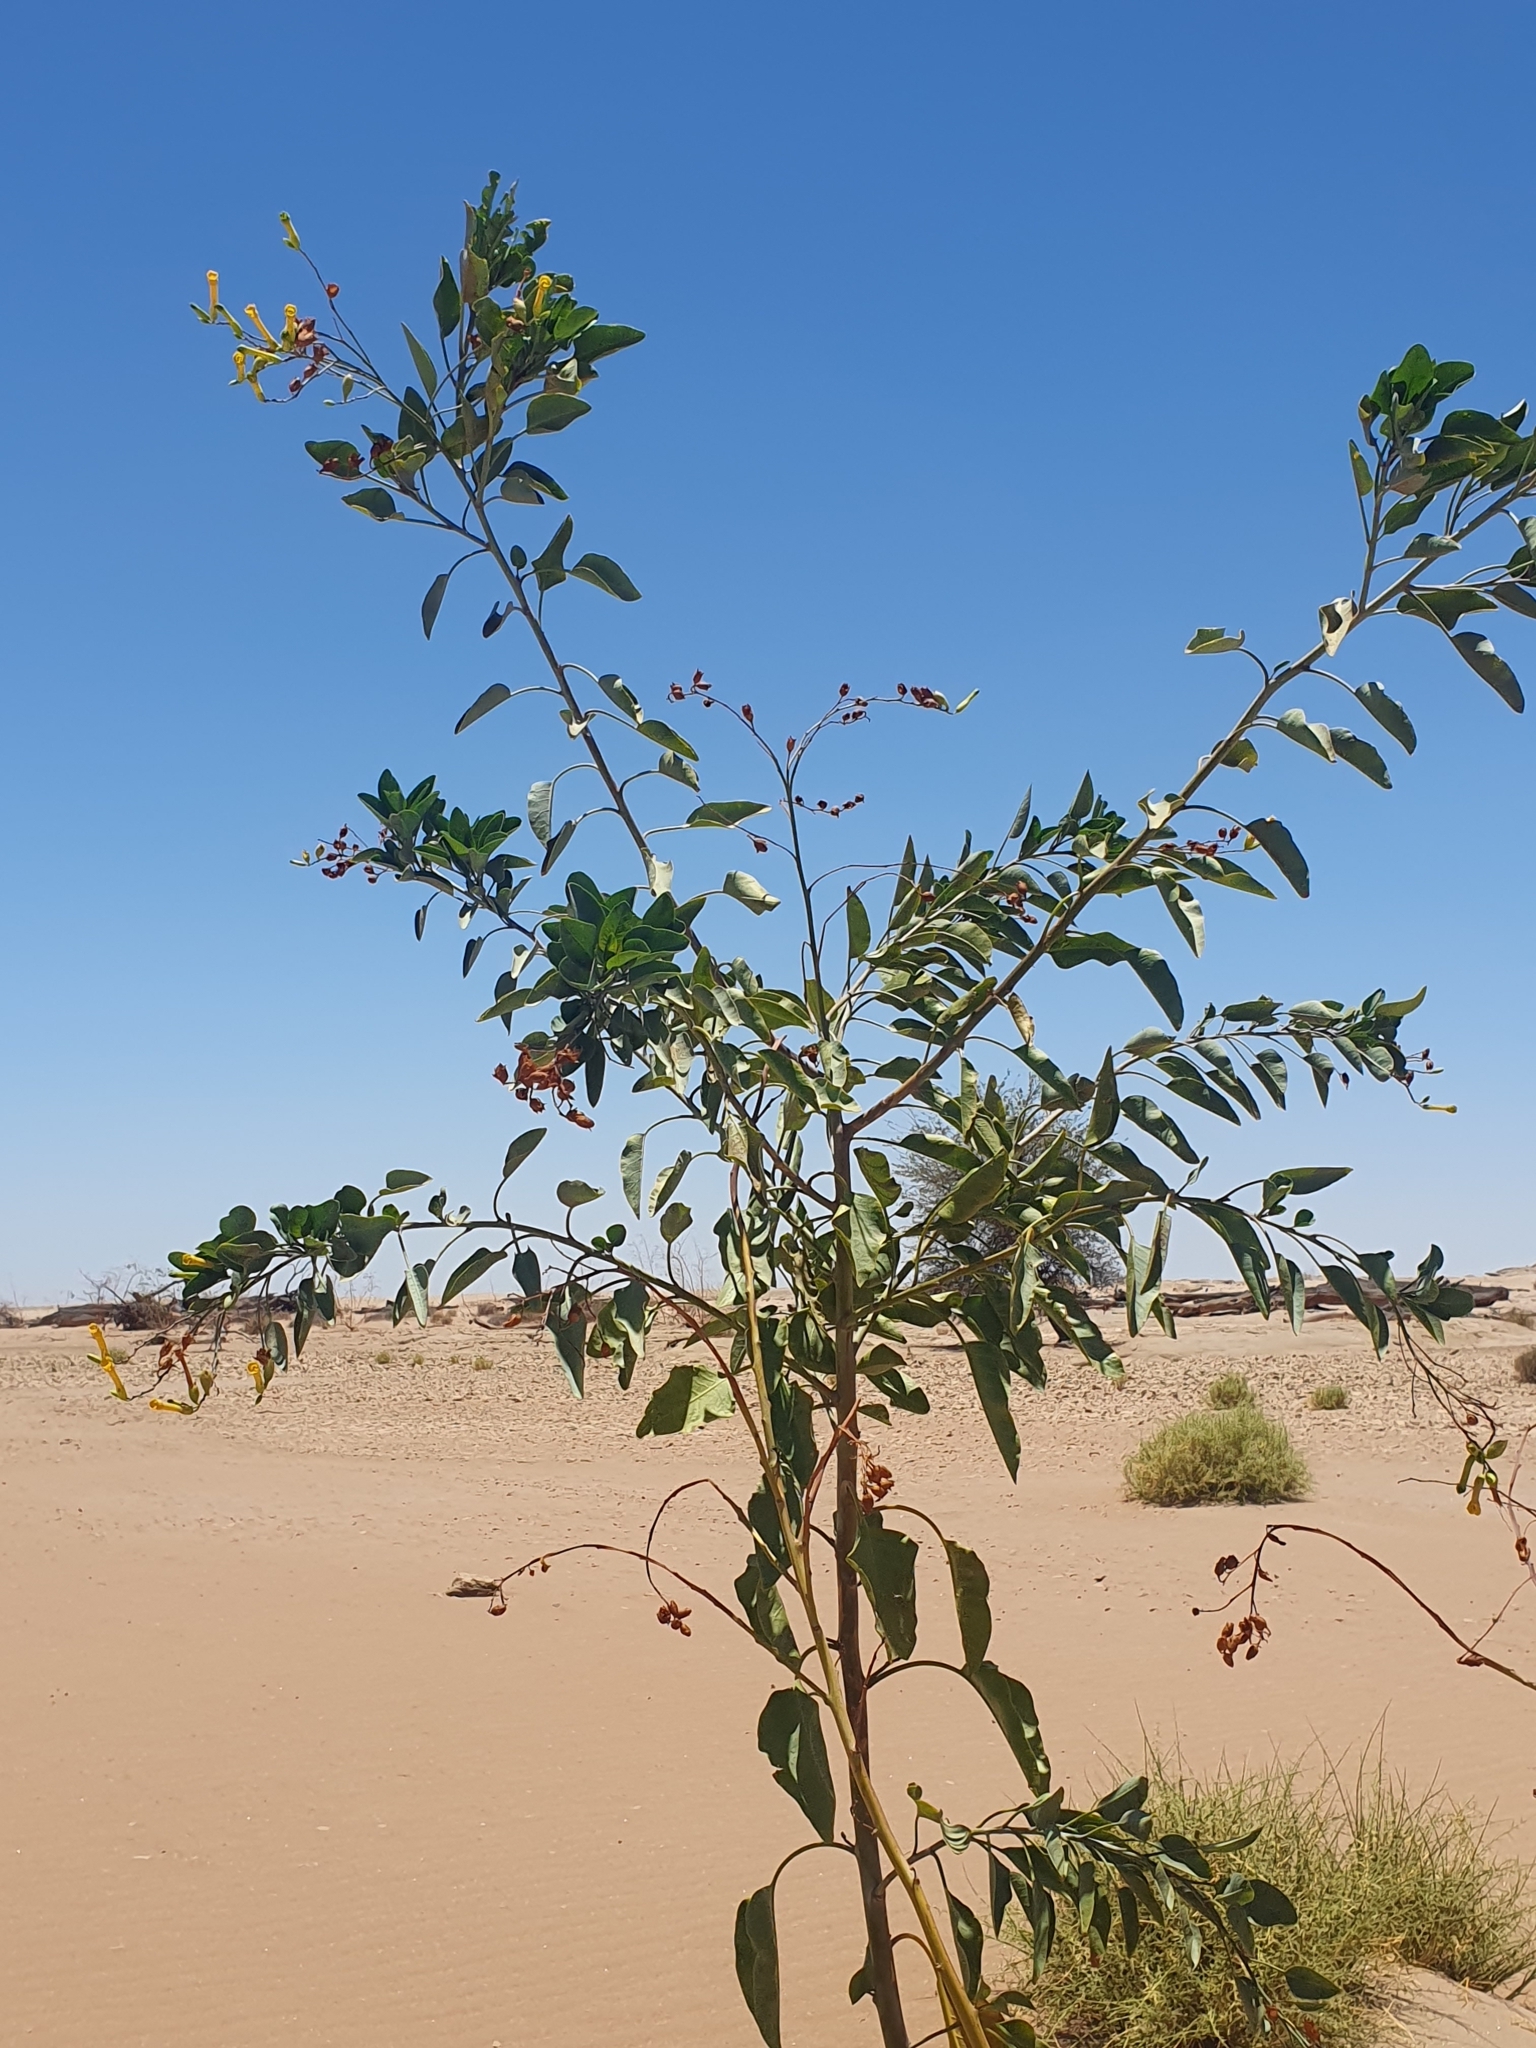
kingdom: Plantae
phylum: Tracheophyta
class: Magnoliopsida
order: Solanales
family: Solanaceae
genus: Nicotiana
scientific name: Nicotiana glauca
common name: Tree tobacco
